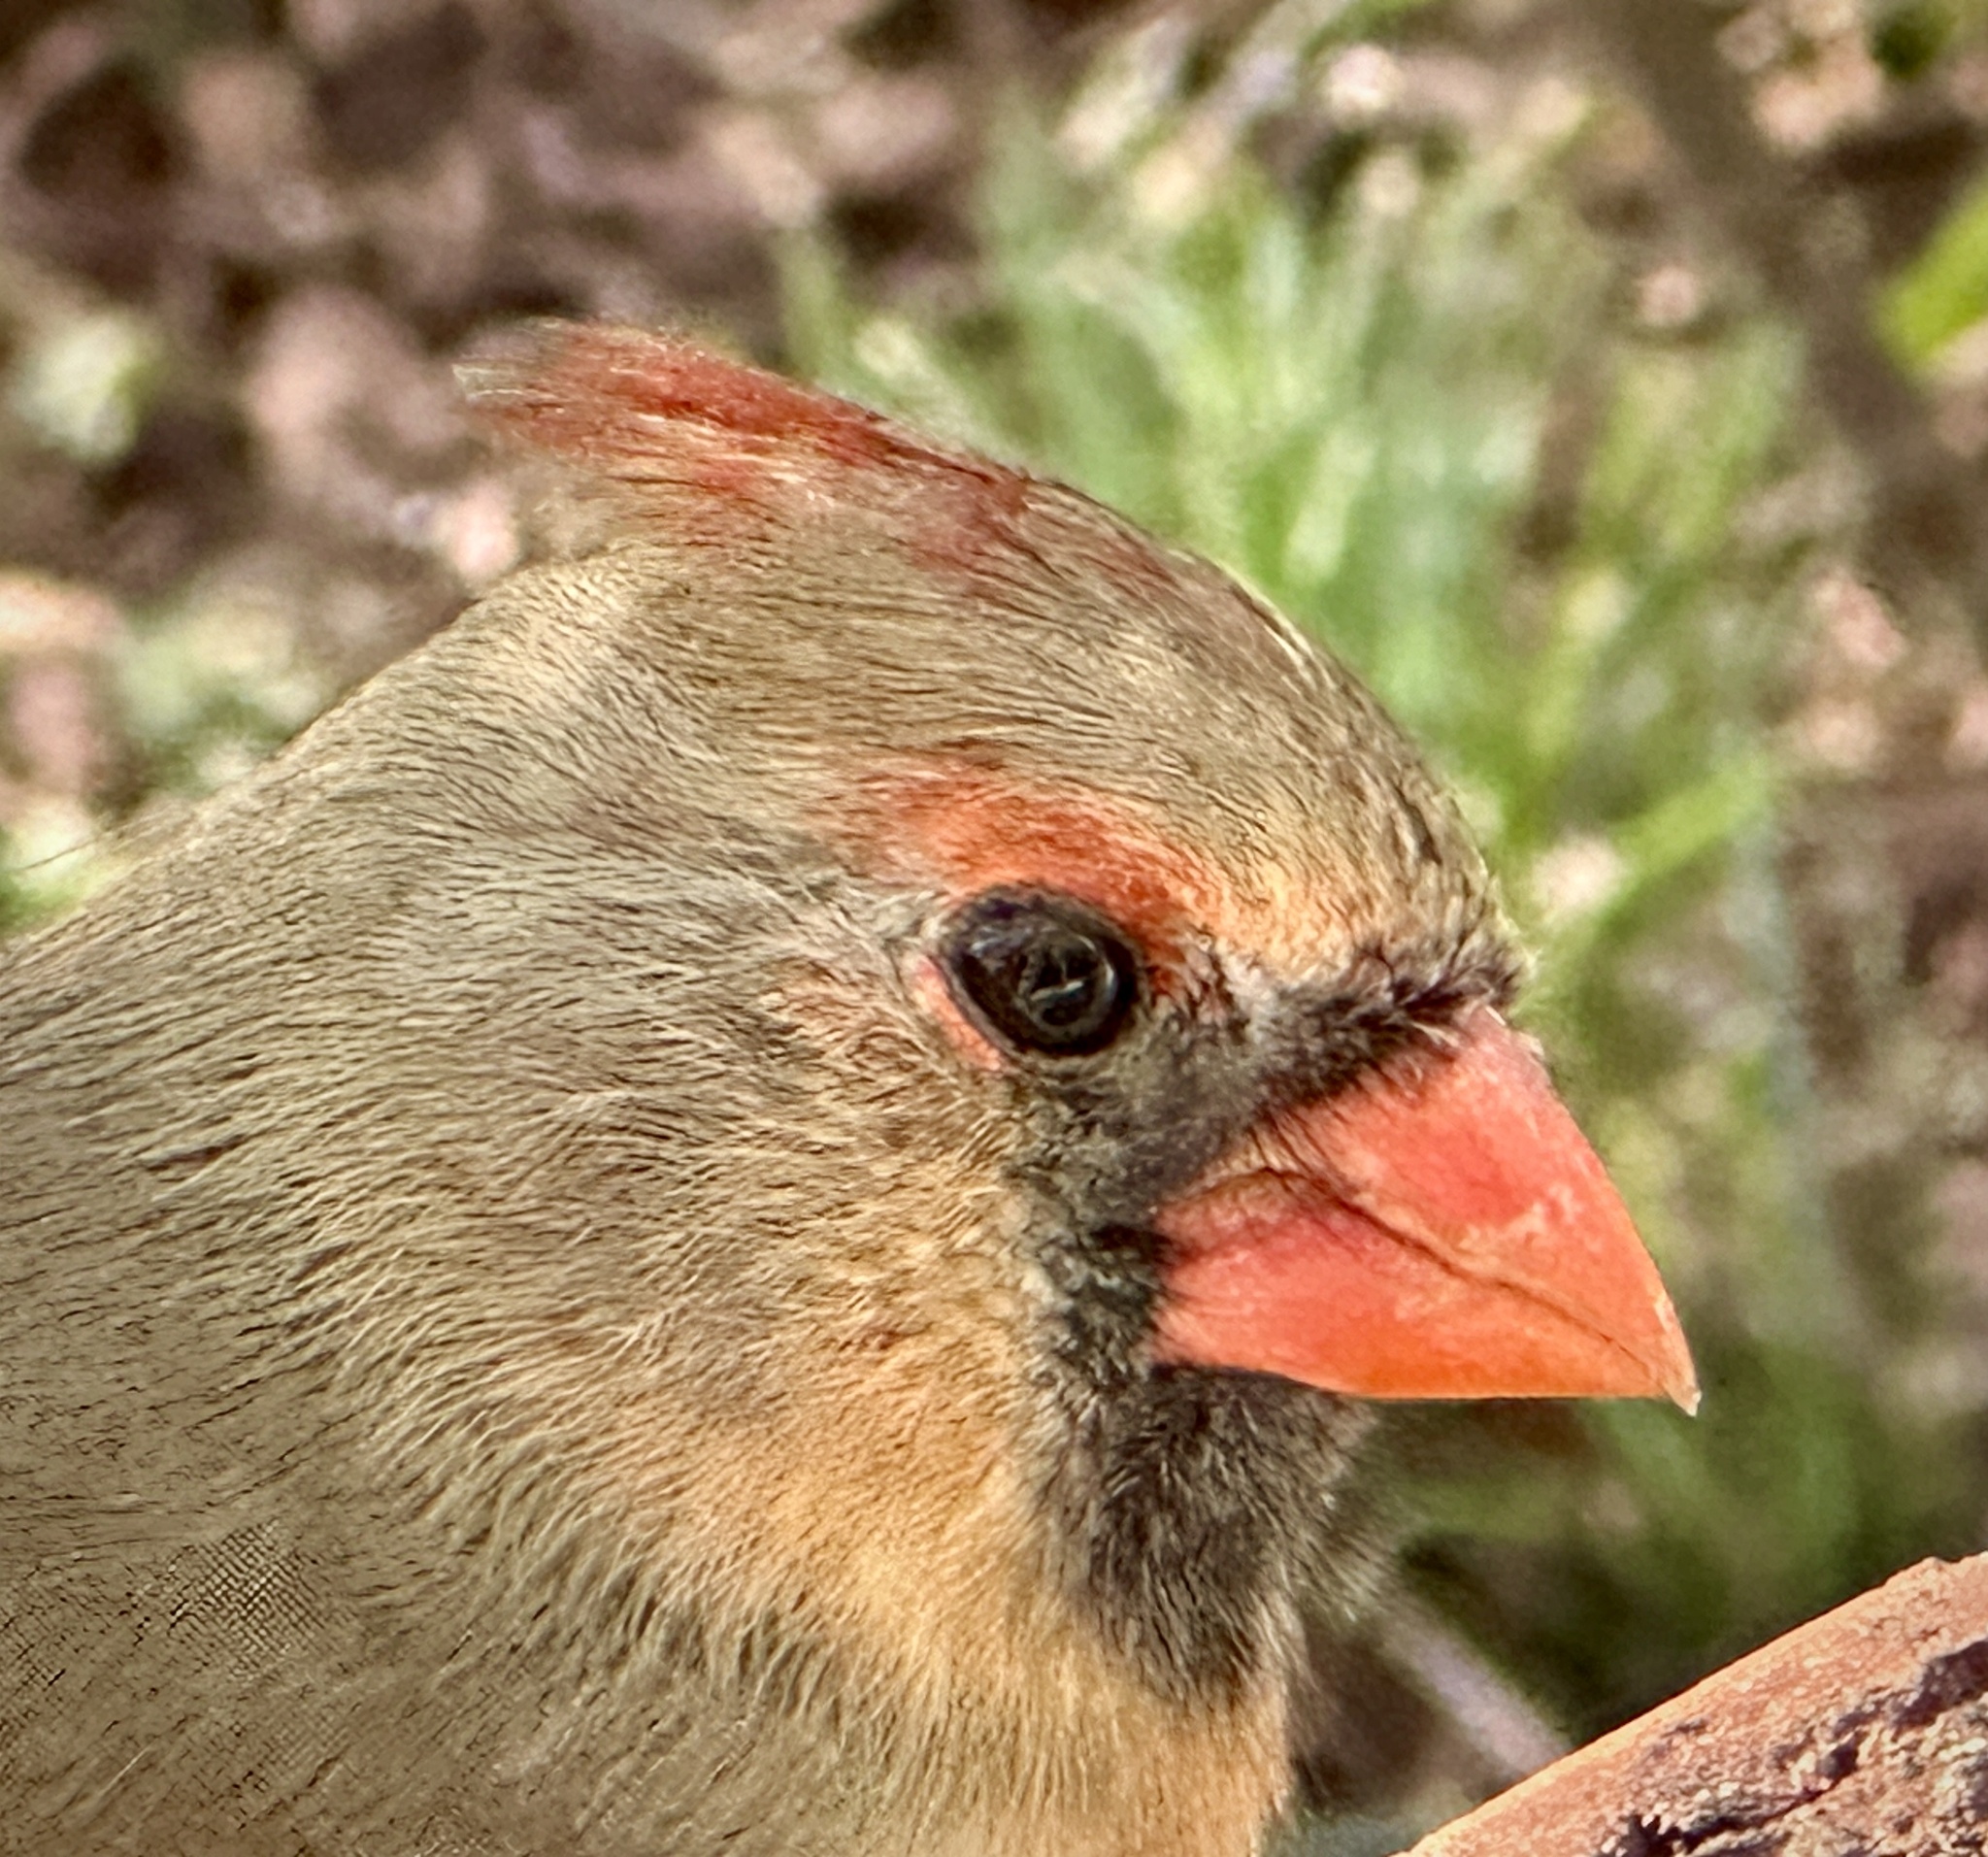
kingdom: Animalia
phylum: Chordata
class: Aves
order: Passeriformes
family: Cardinalidae
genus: Cardinalis
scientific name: Cardinalis cardinalis
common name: Northern cardinal
